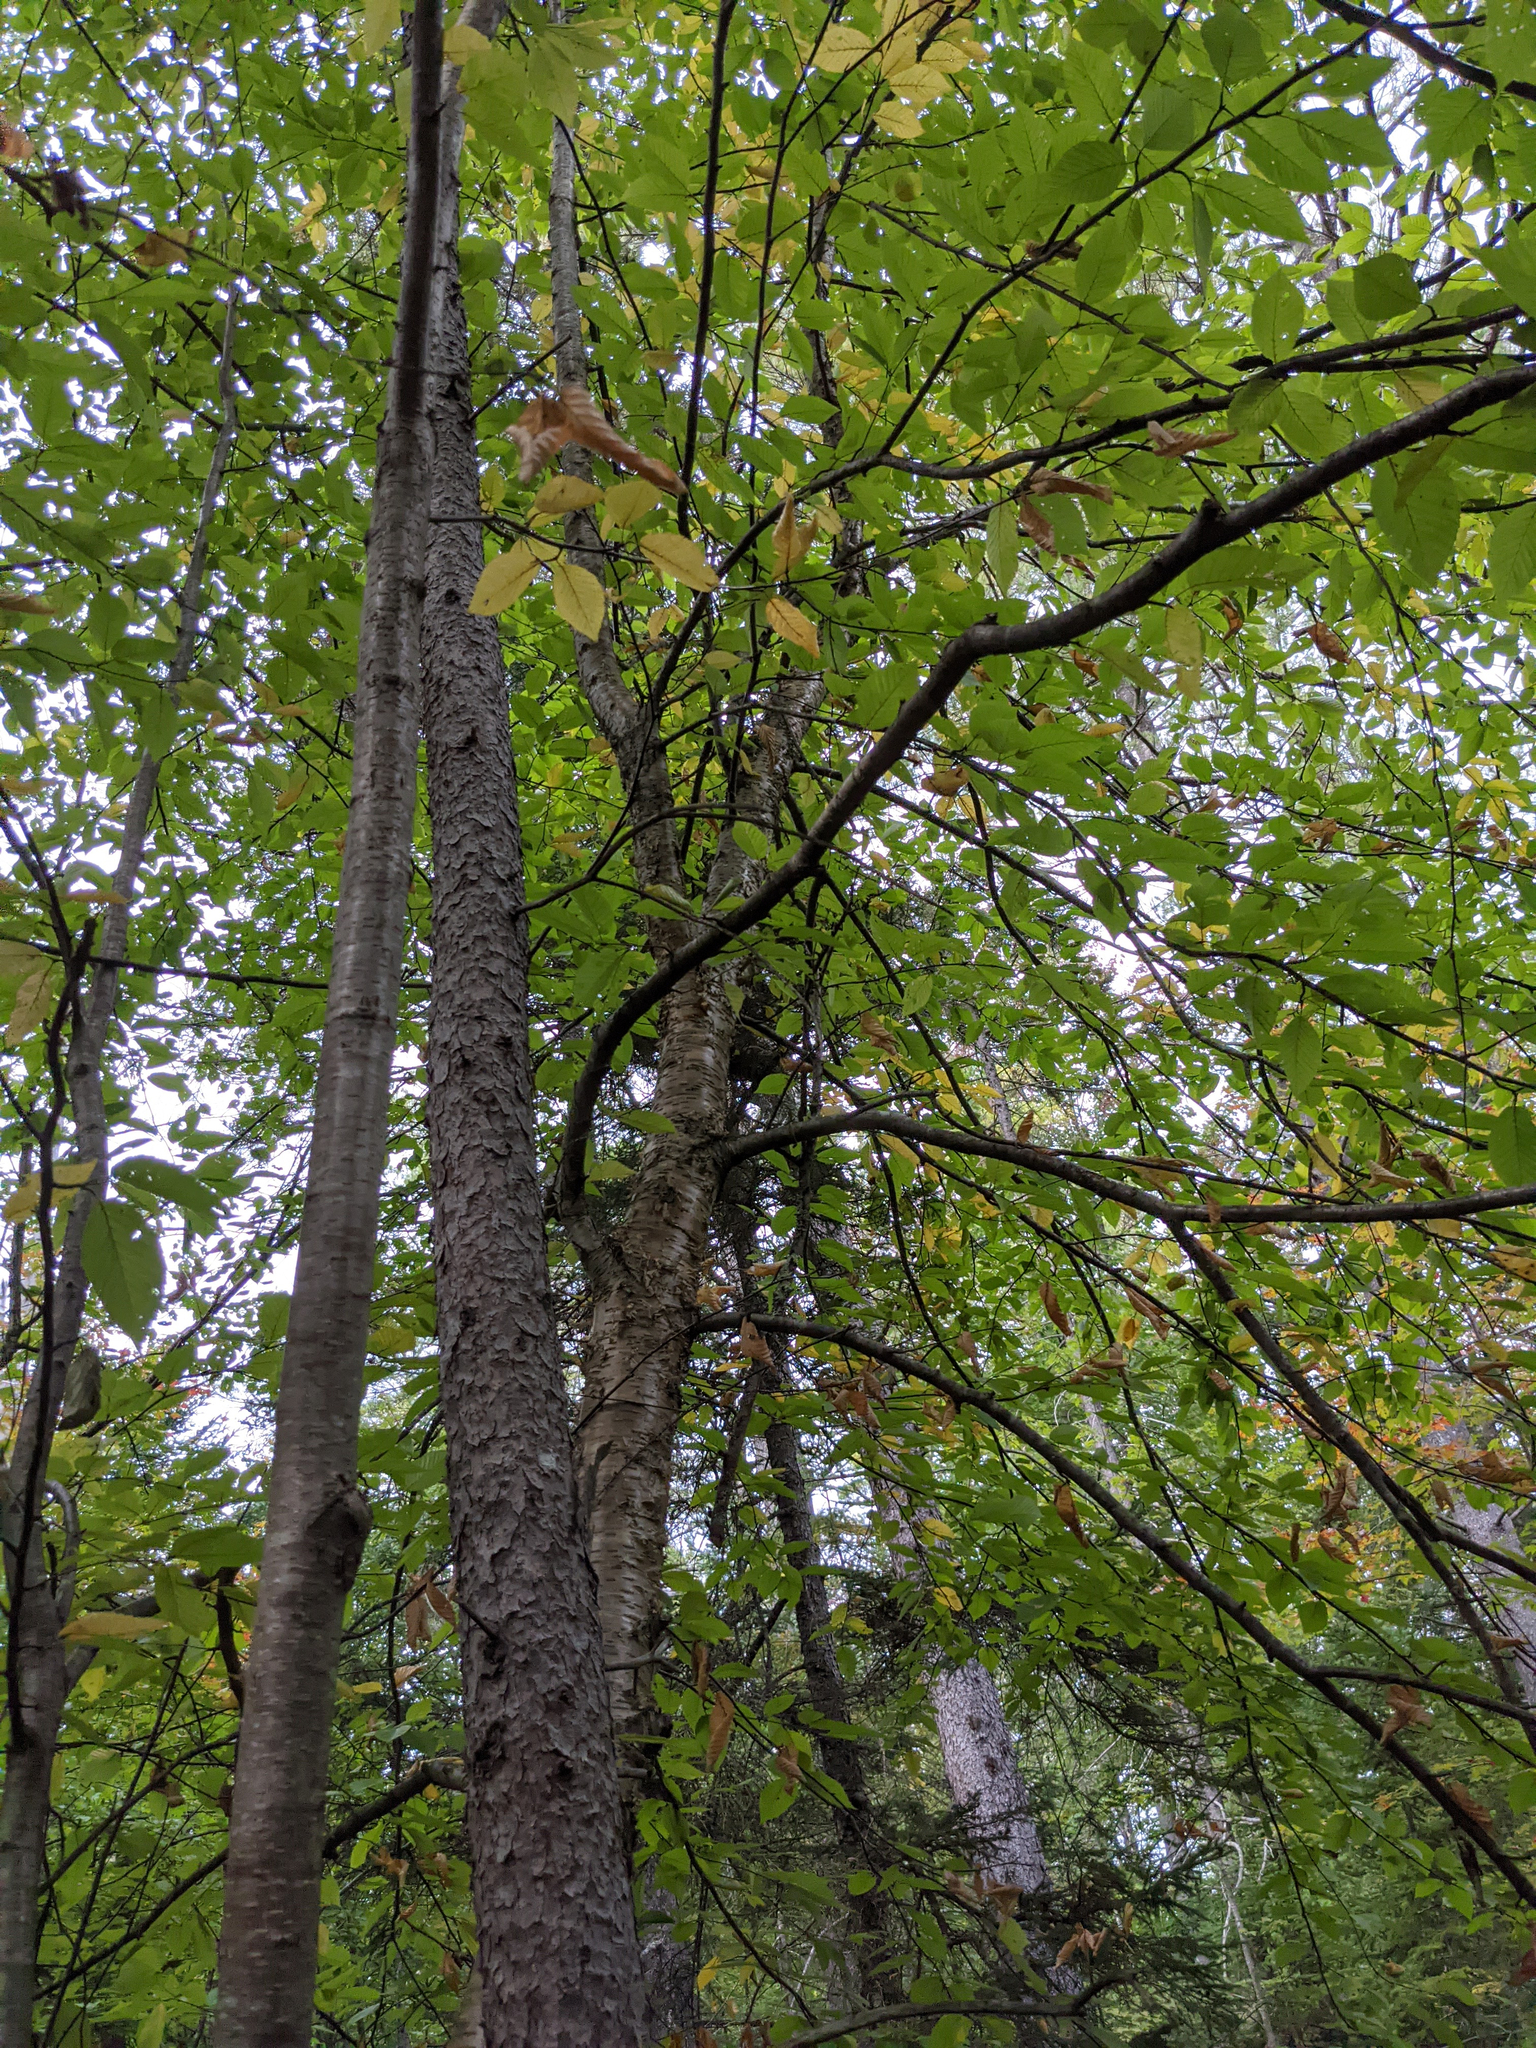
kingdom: Plantae
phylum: Tracheophyta
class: Magnoliopsida
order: Fagales
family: Betulaceae
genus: Betula
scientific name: Betula alleghaniensis
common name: Yellow birch
